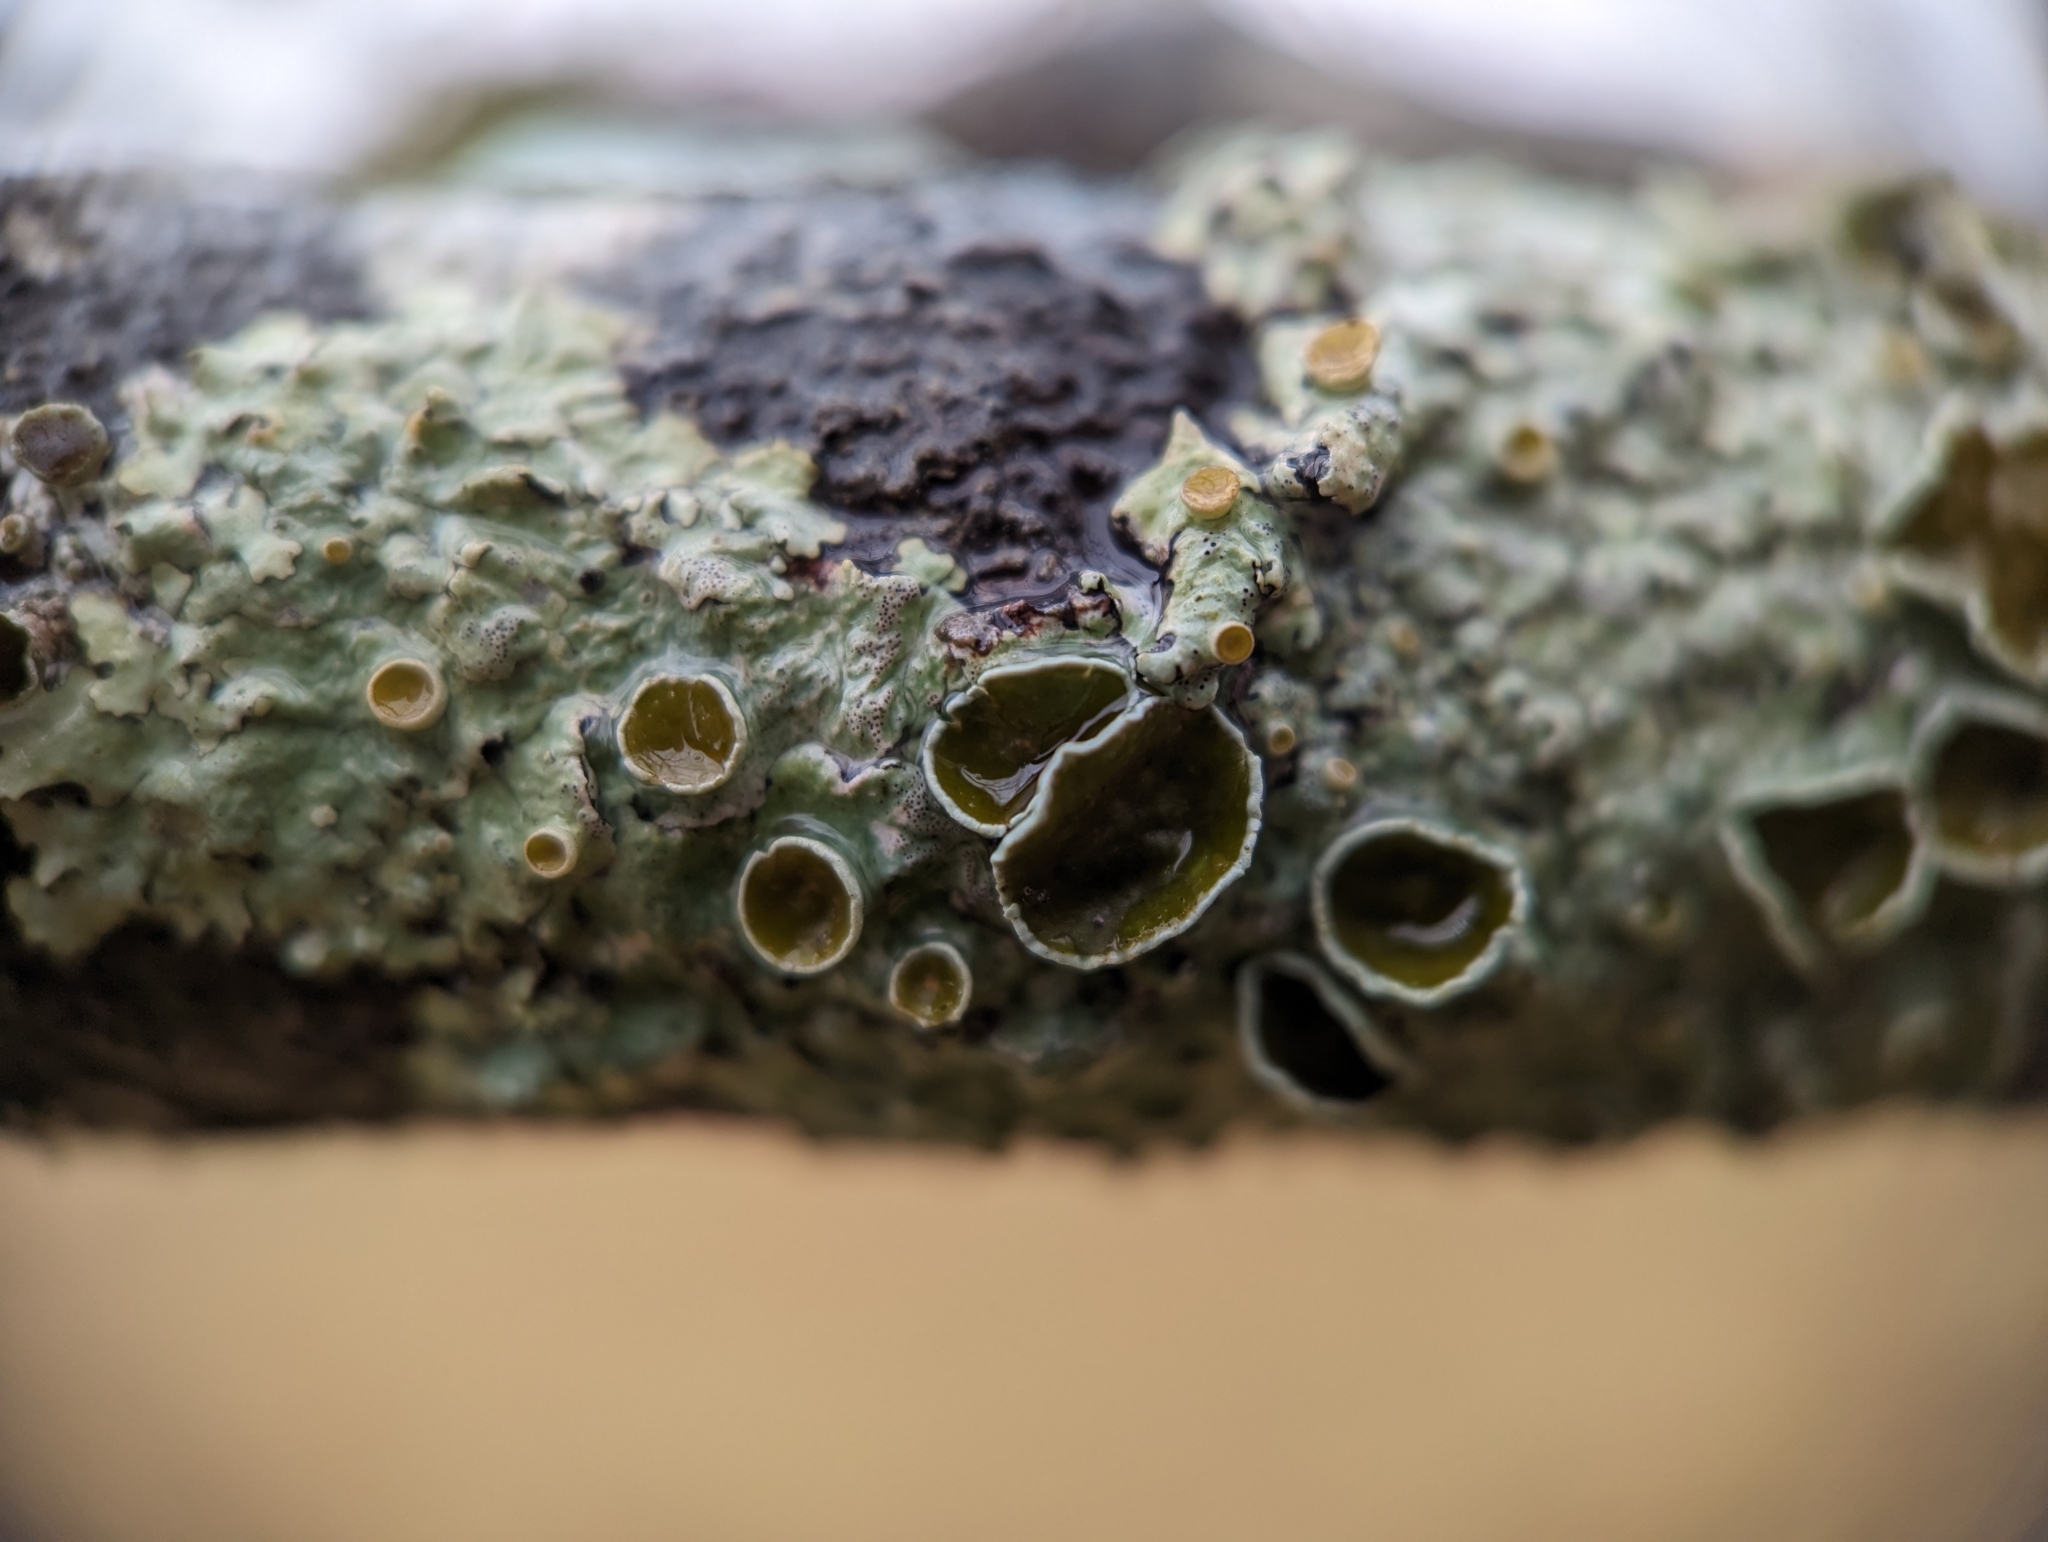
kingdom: Fungi
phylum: Ascomycota
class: Lecanoromycetes
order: Lecanorales
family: Parmeliaceae
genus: Myelochroa
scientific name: Myelochroa galbina
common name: Smooth axil-bristle lichen
